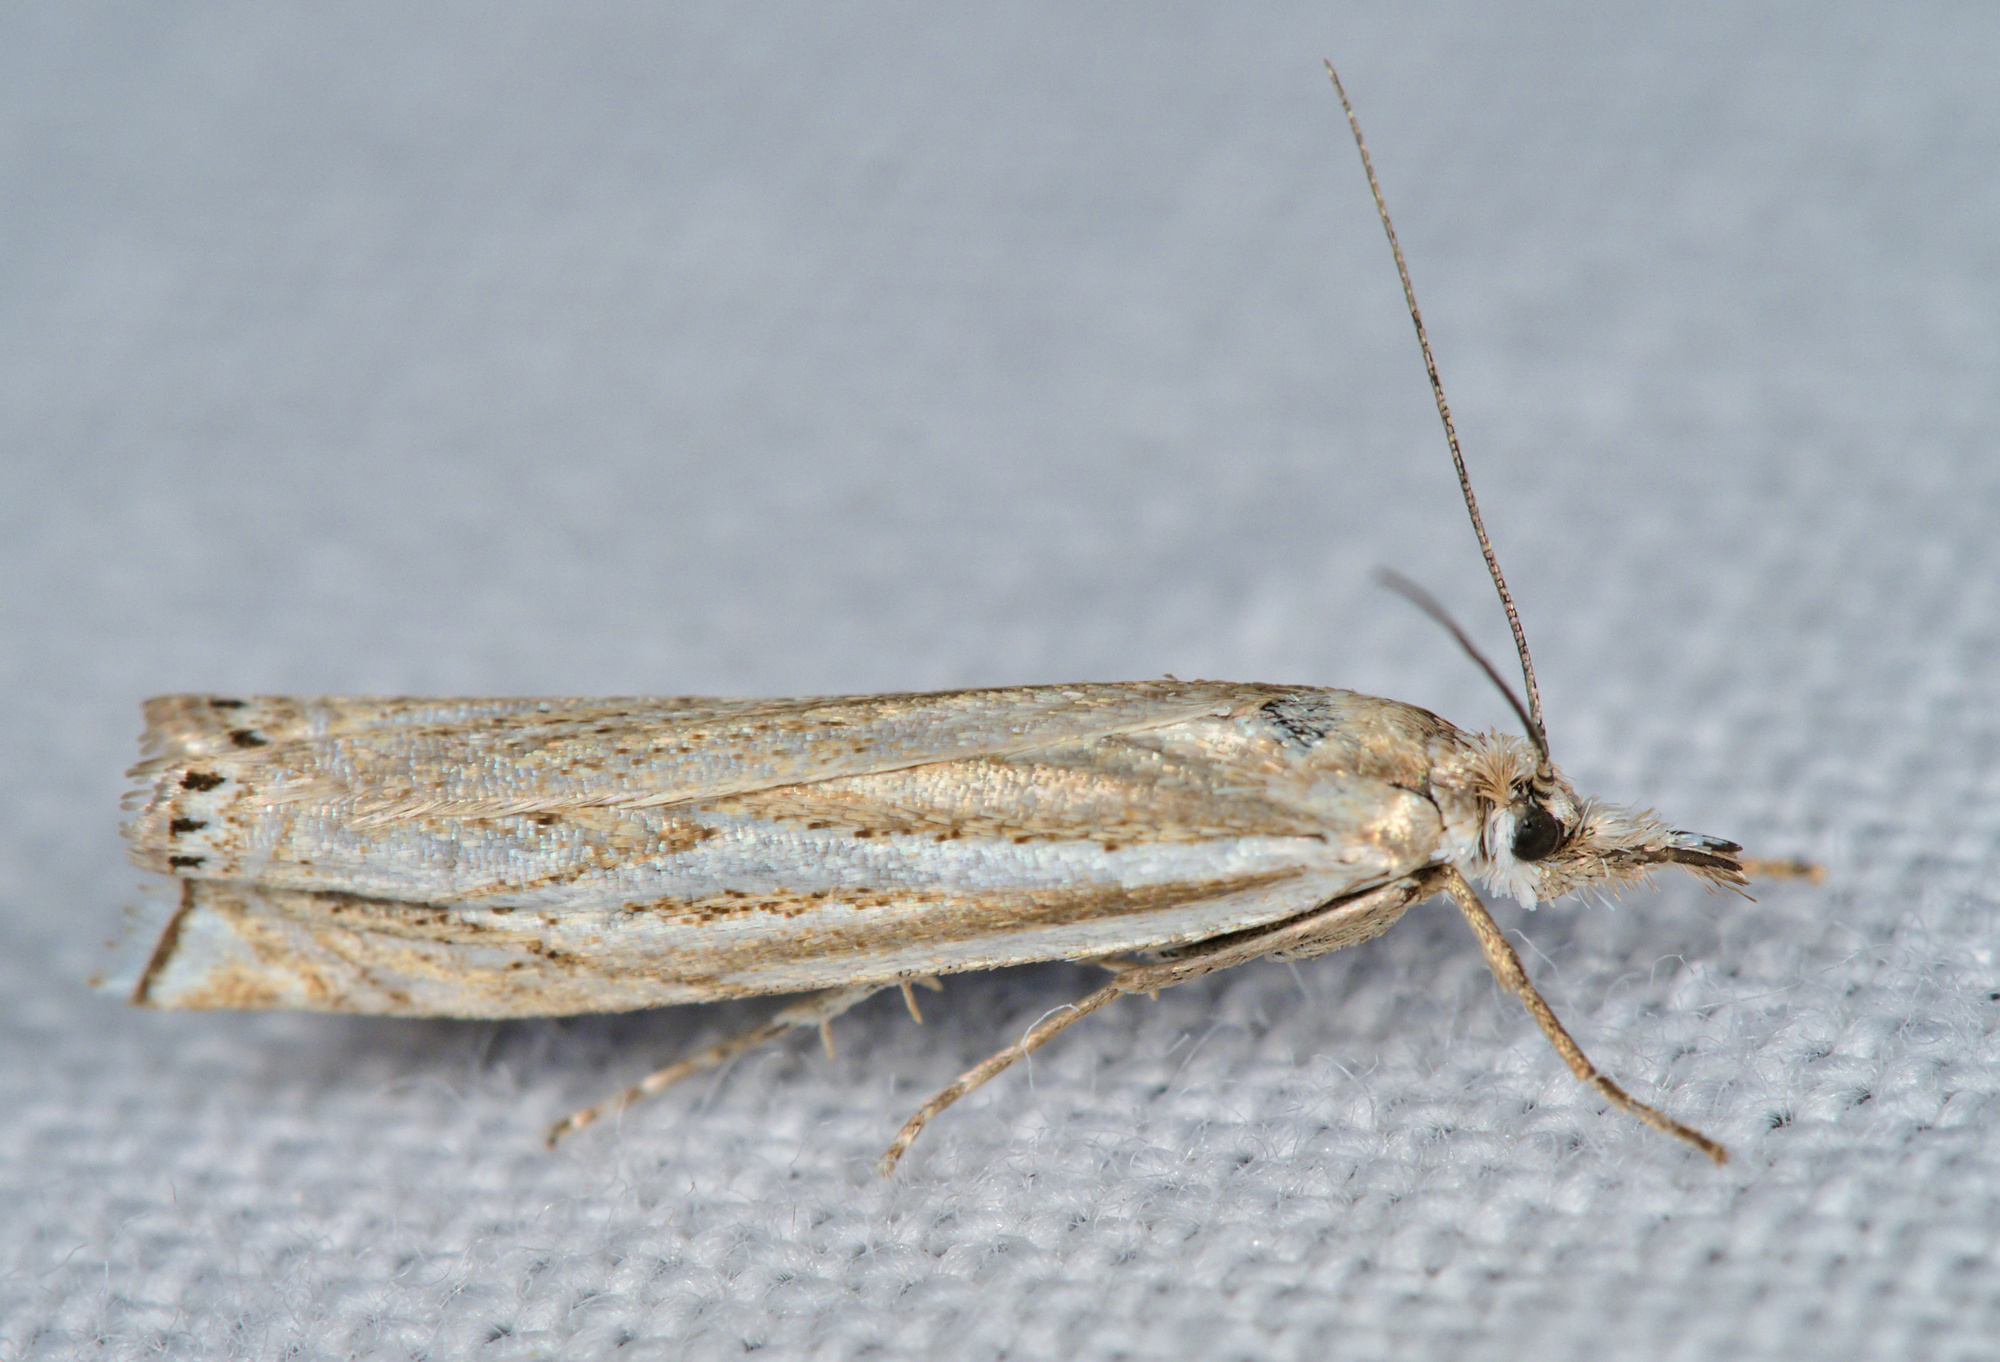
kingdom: Animalia
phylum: Arthropoda
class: Insecta
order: Lepidoptera
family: Crambidae
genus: Crambus
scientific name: Crambus nemorella
